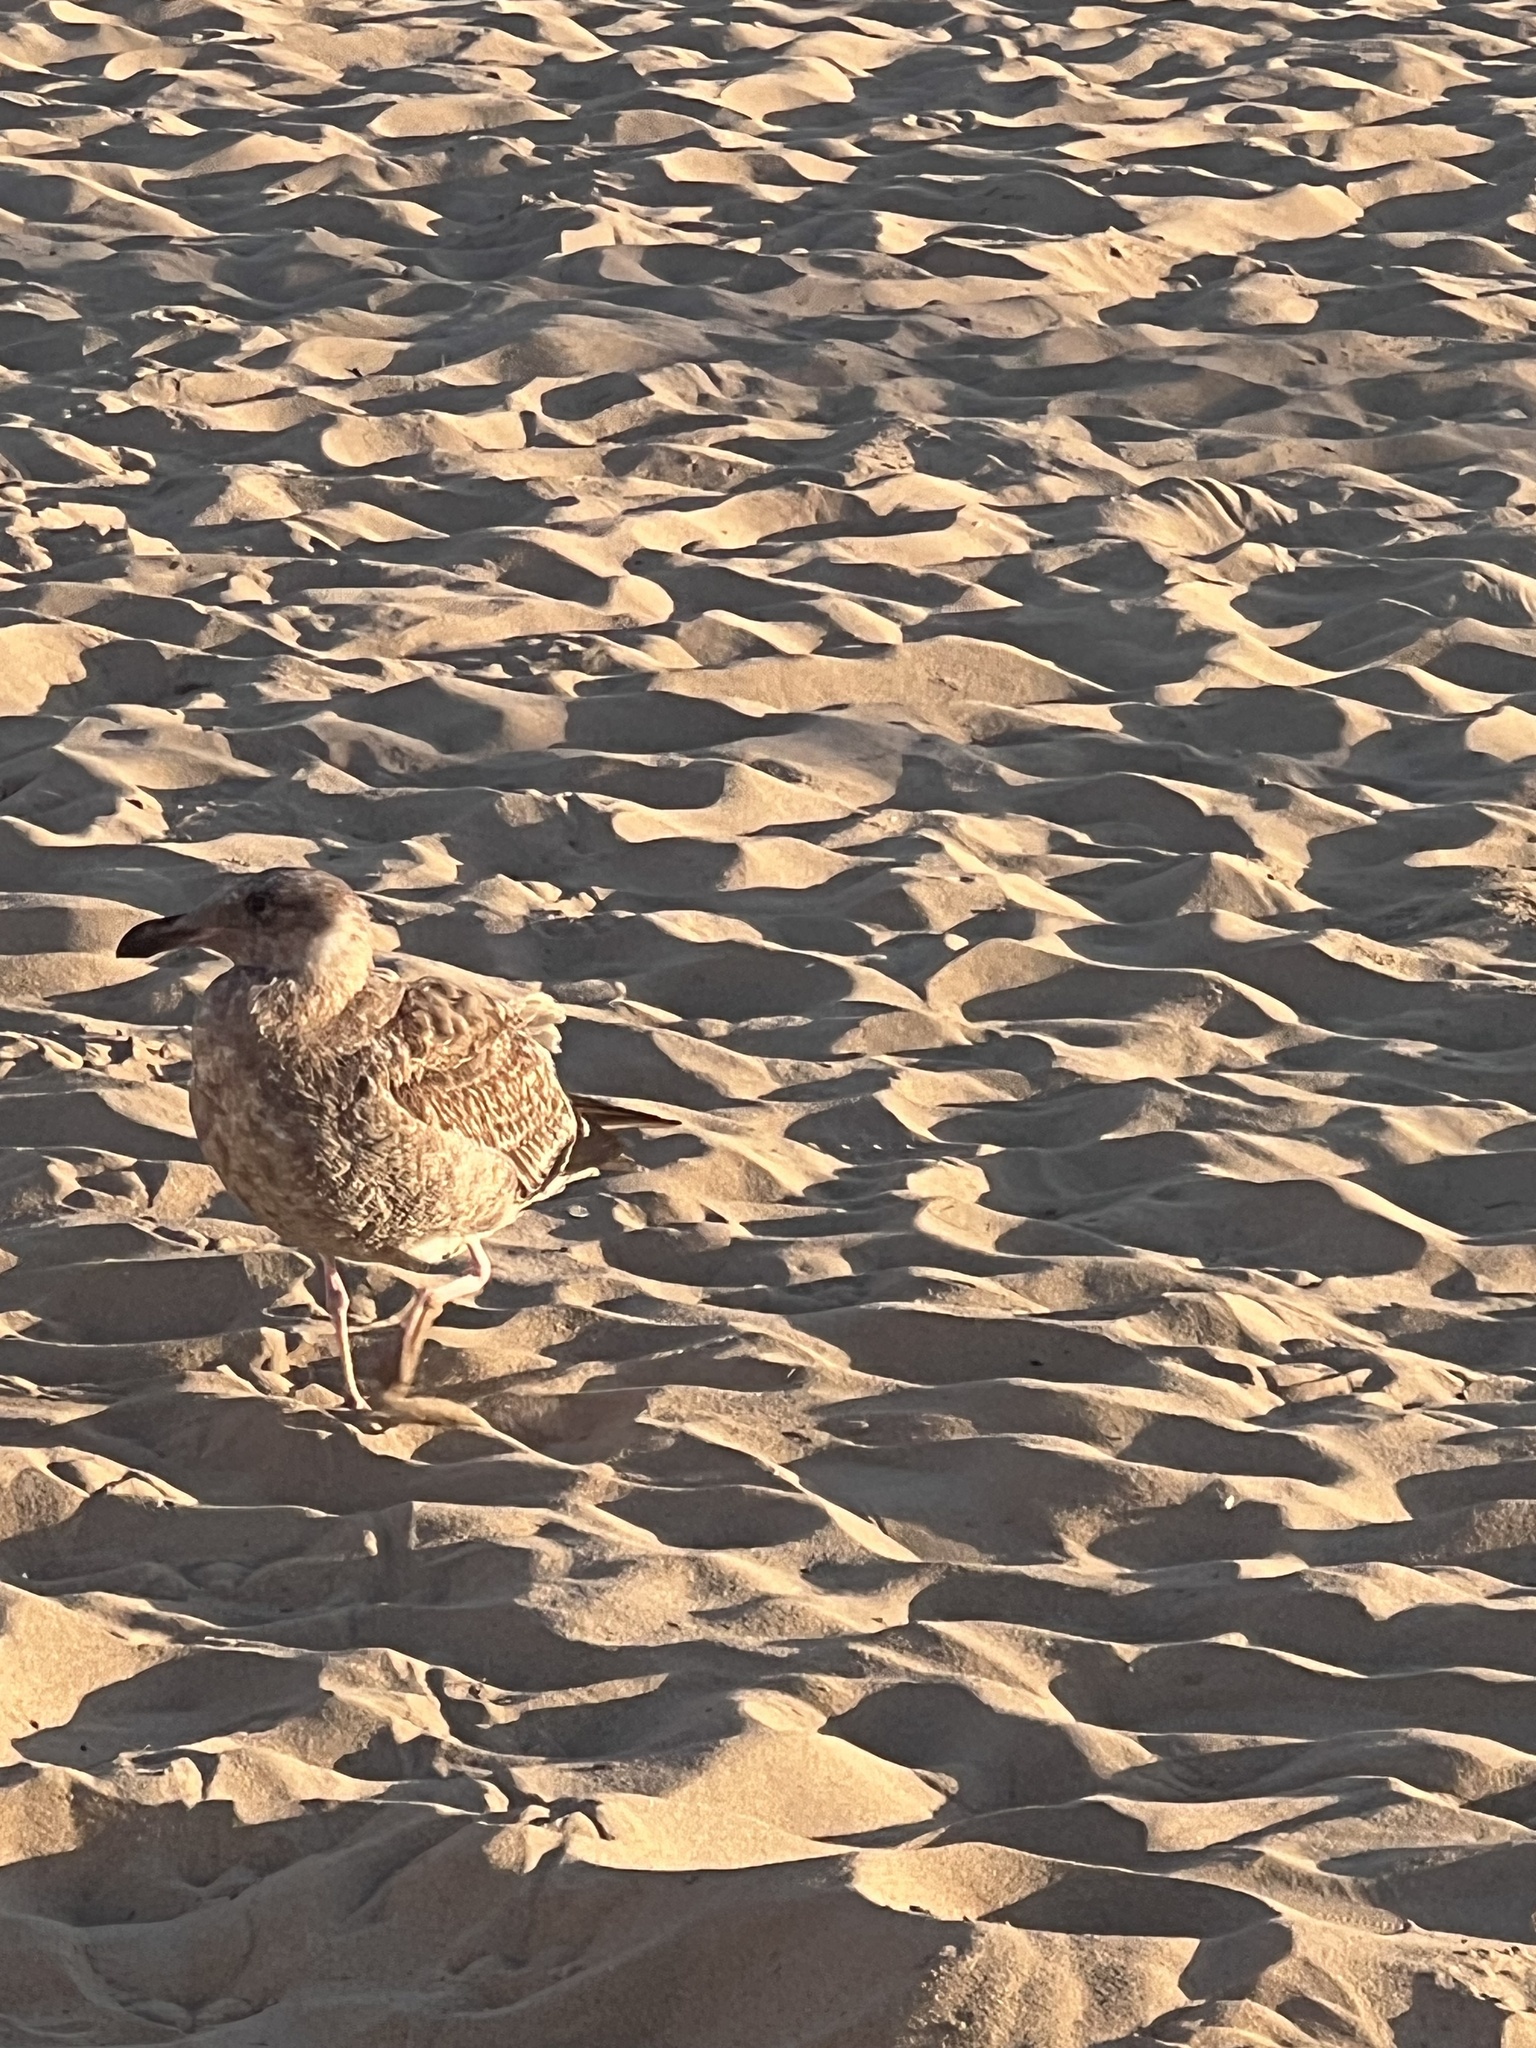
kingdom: Animalia
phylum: Chordata
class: Aves
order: Charadriiformes
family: Laridae
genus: Larus
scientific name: Larus occidentalis
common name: Western gull
